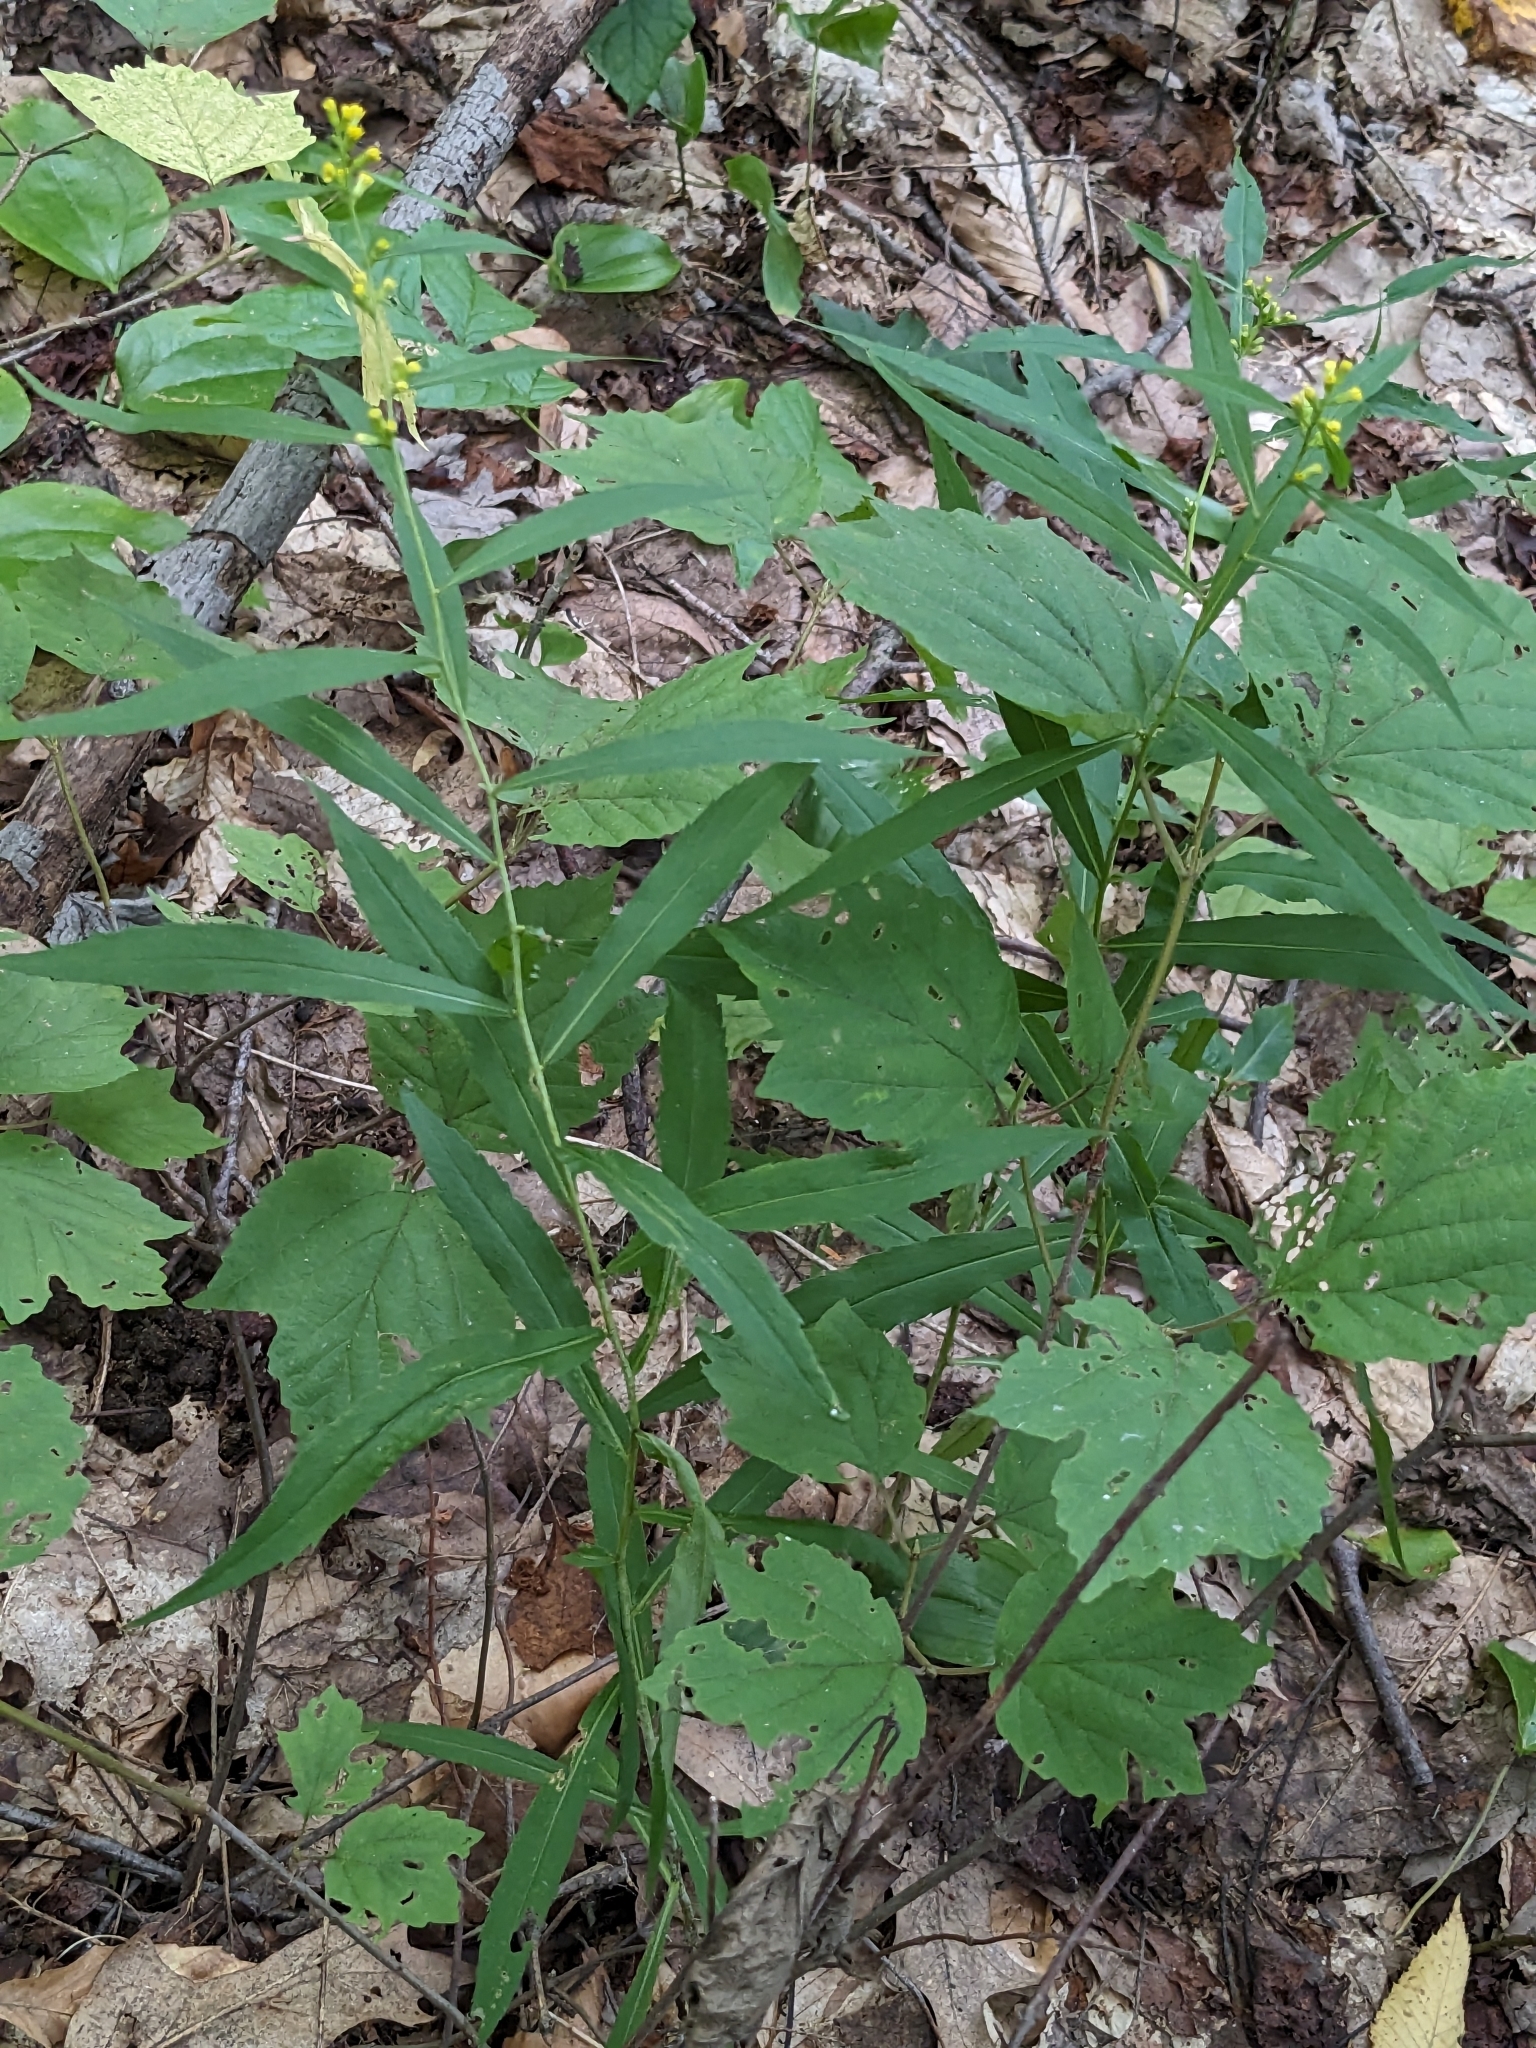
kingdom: Plantae
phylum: Tracheophyta
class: Magnoliopsida
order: Asterales
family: Asteraceae
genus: Solidago
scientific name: Solidago caesia
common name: Woodland goldenrod
